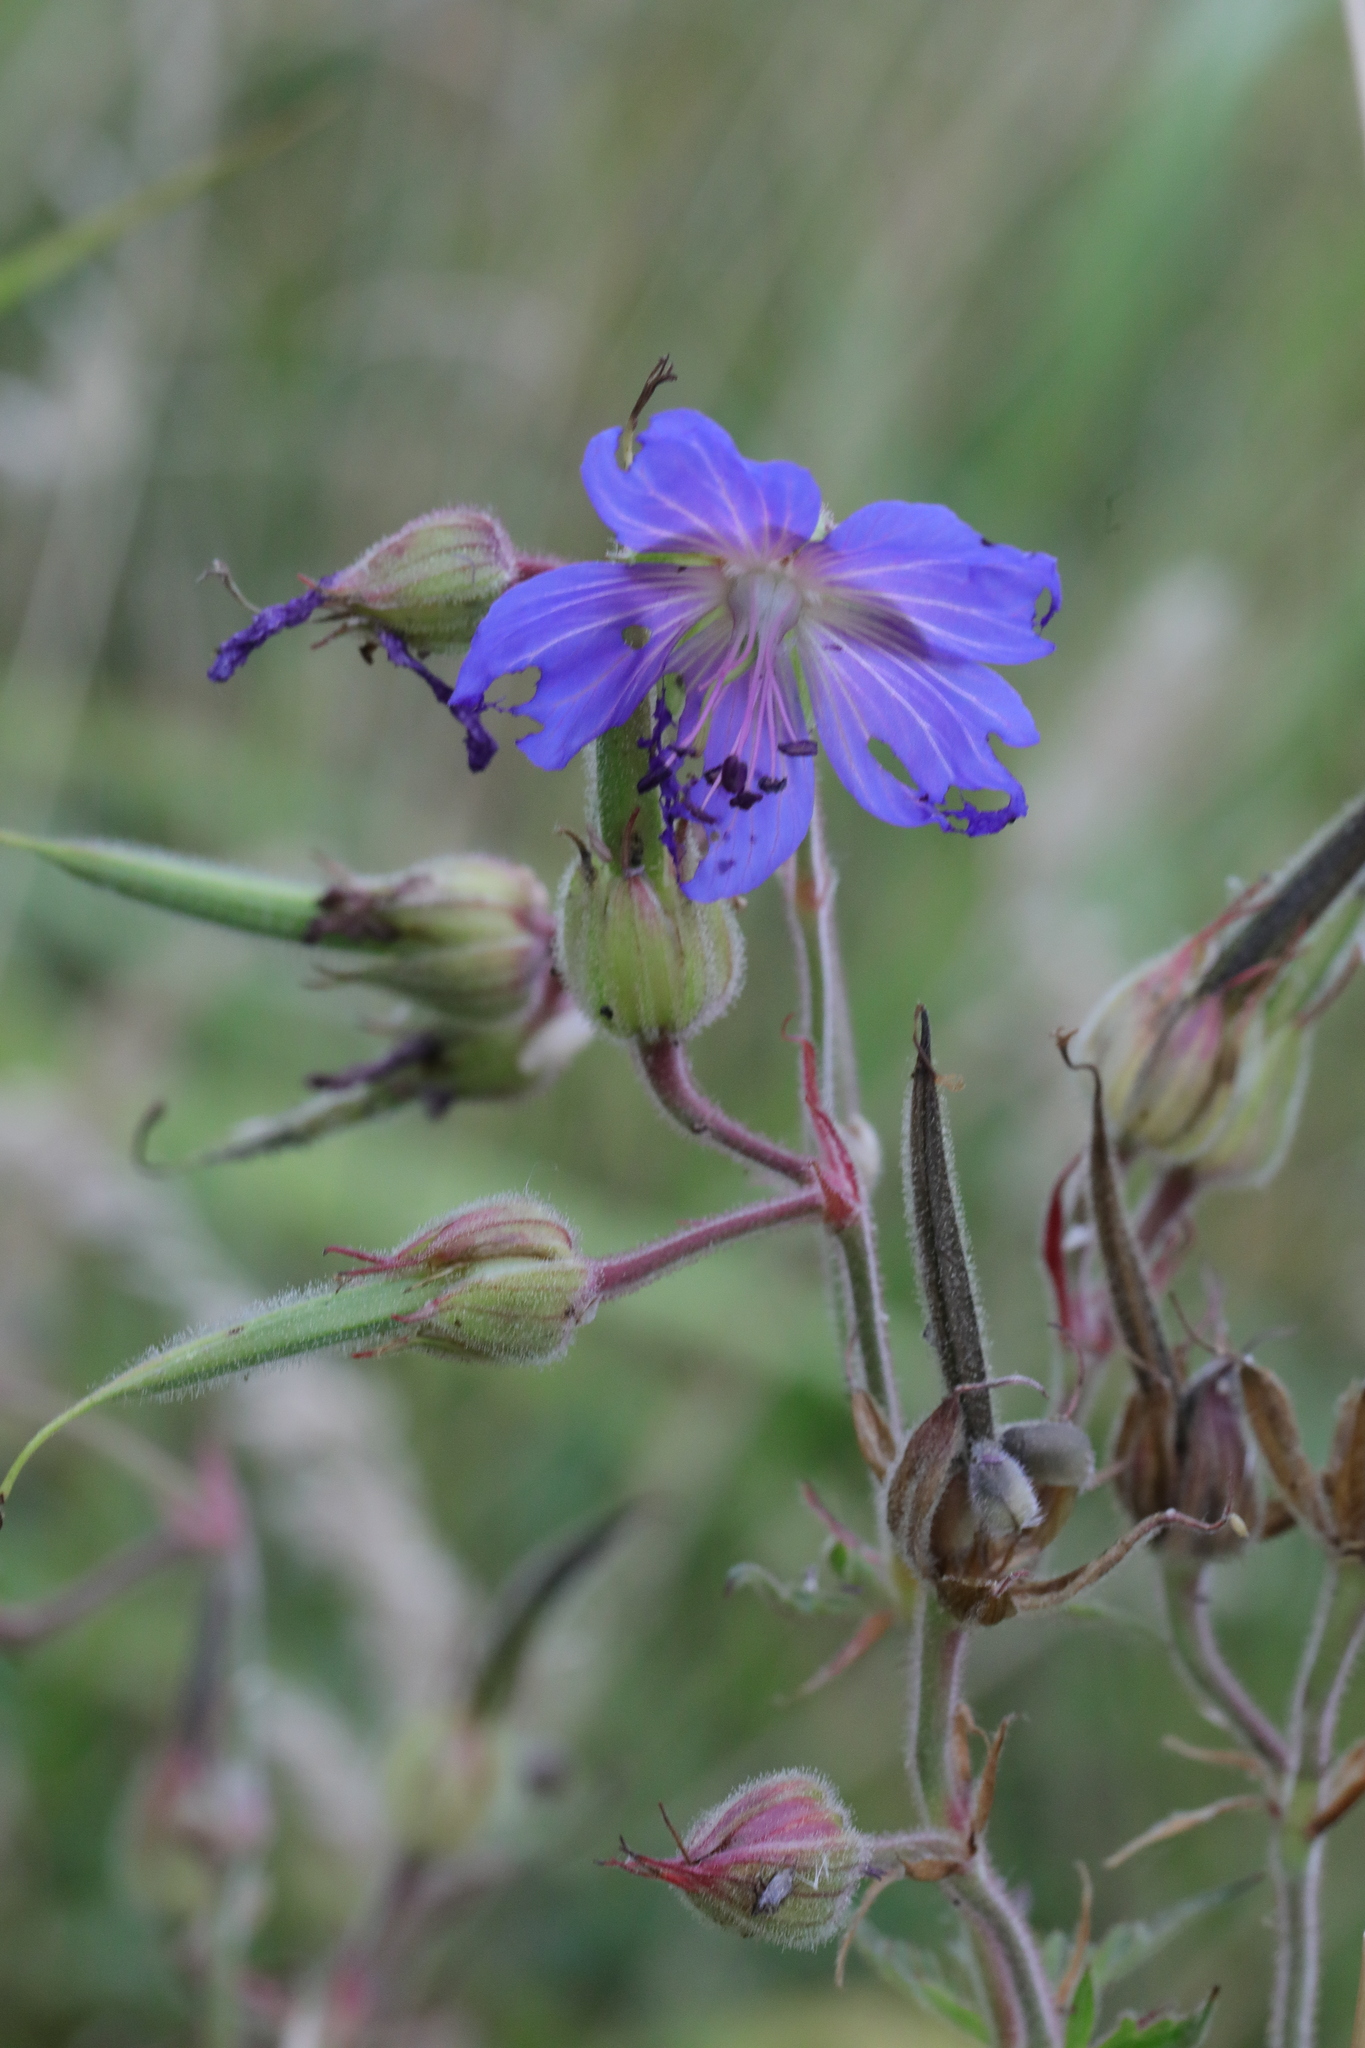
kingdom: Plantae
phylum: Tracheophyta
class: Magnoliopsida
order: Geraniales
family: Geraniaceae
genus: Geranium
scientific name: Geranium pratense
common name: Meadow crane's-bill
